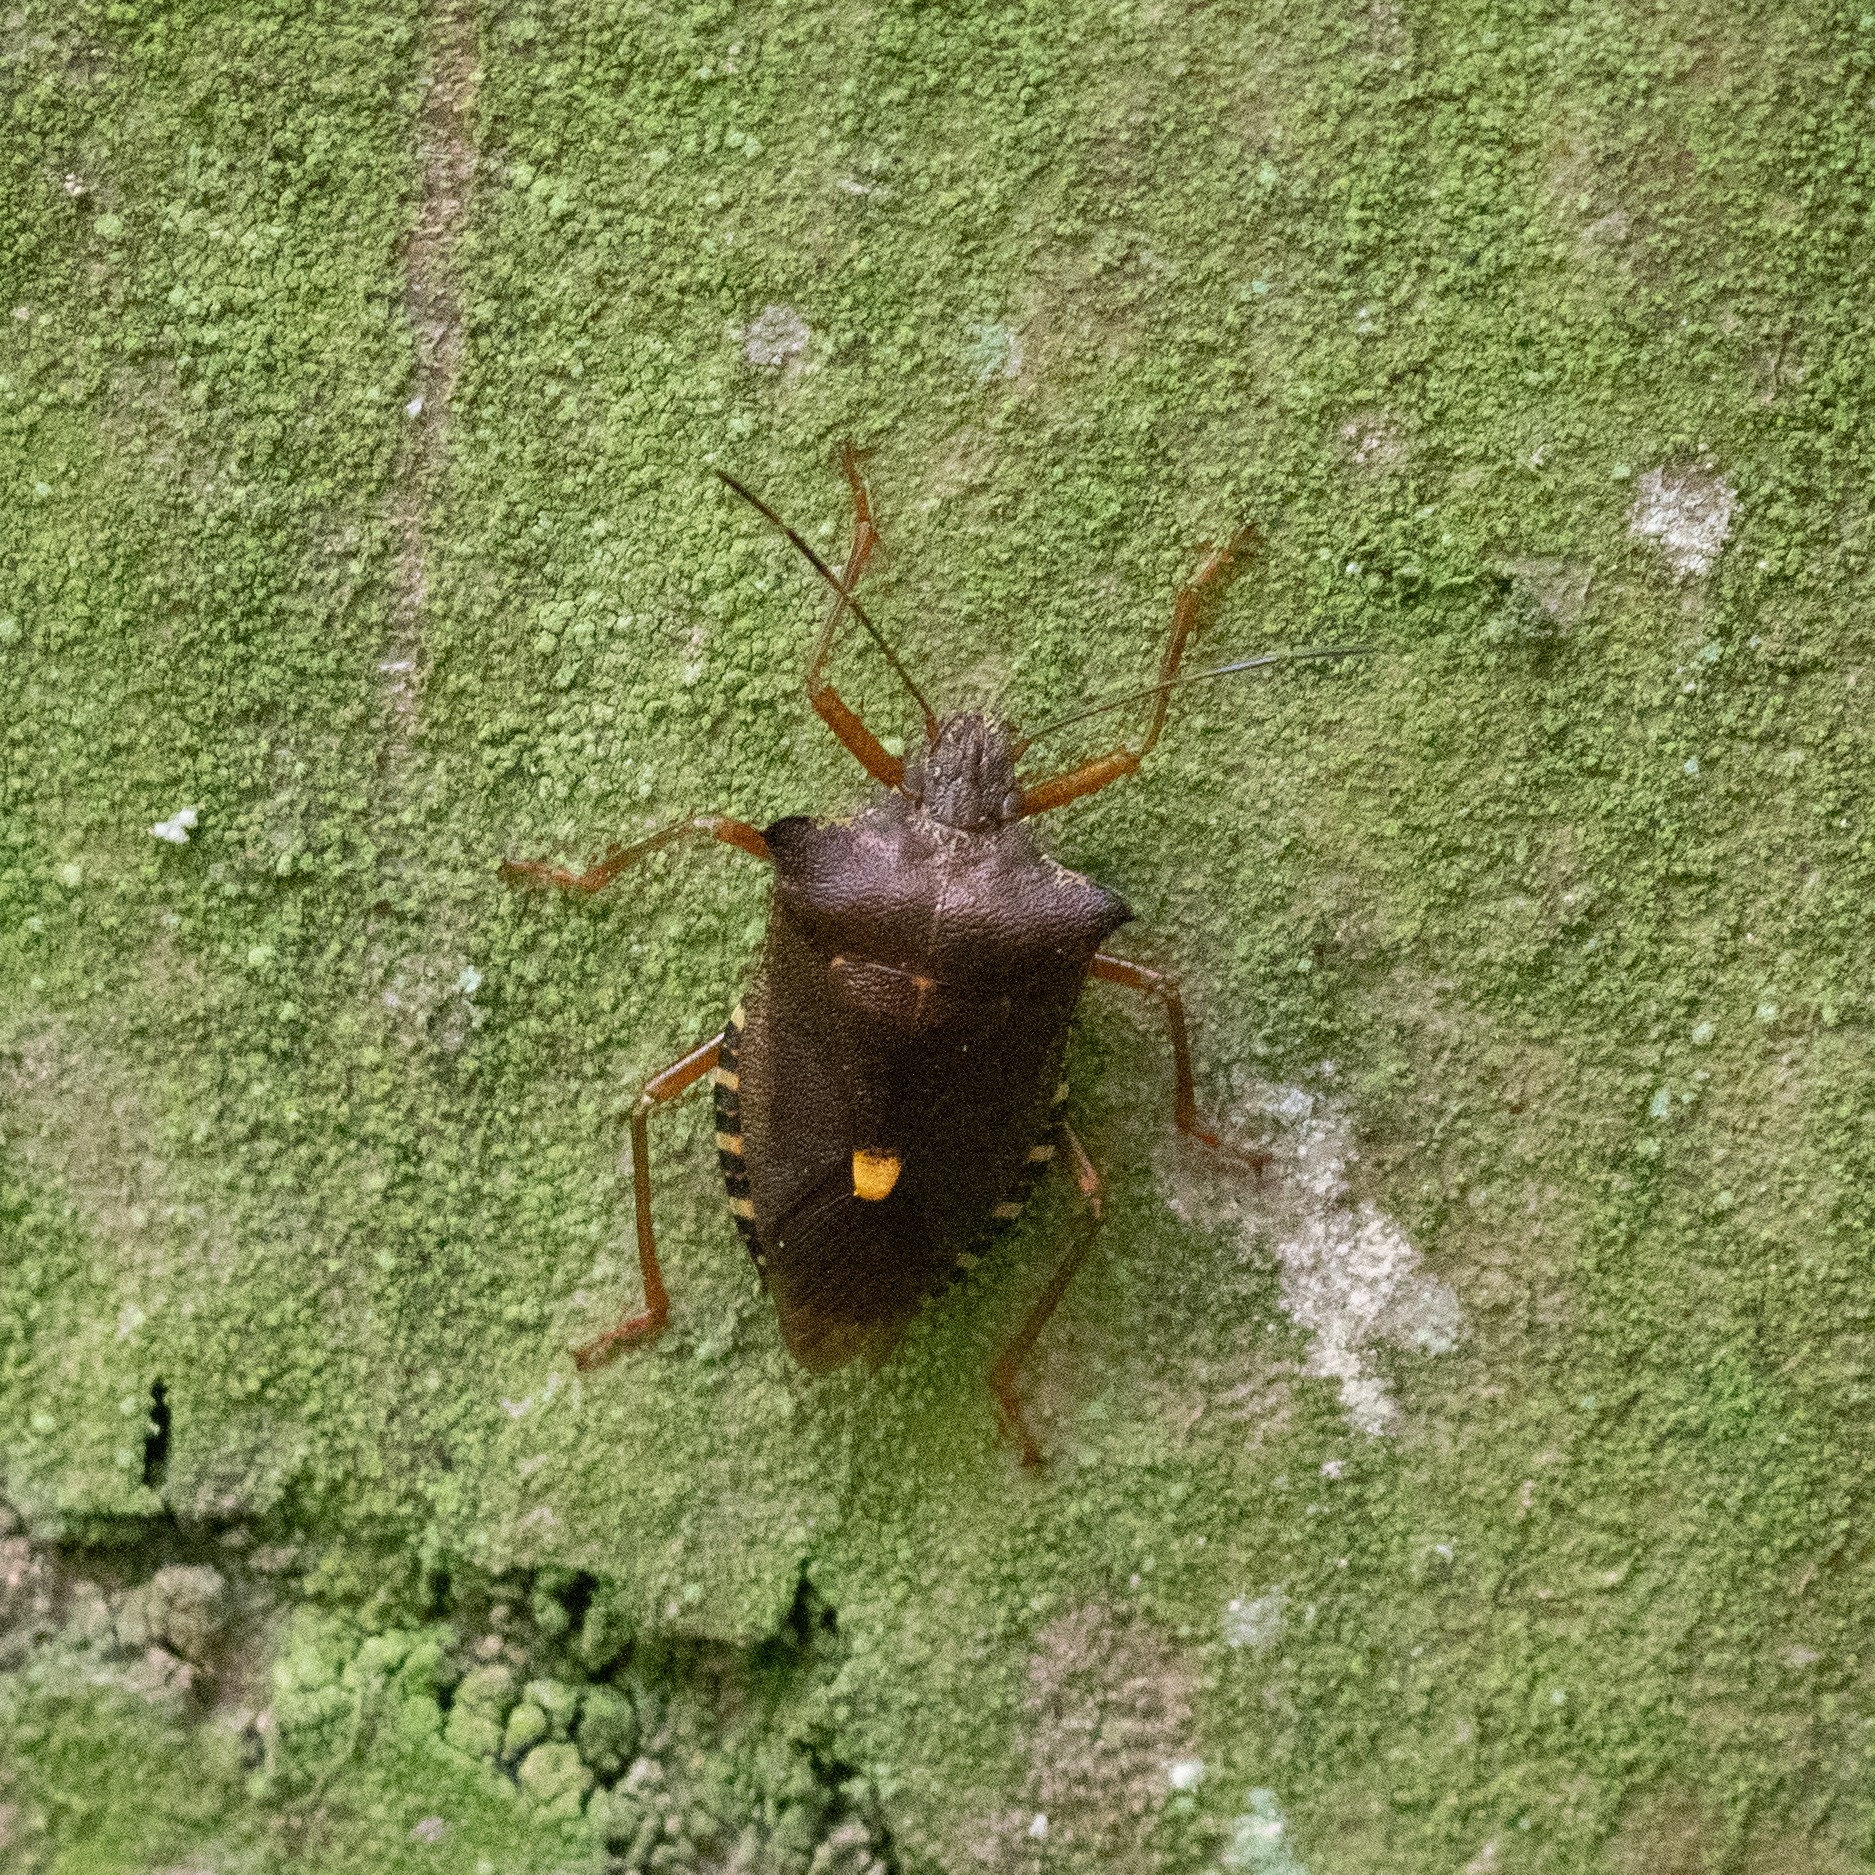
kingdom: Animalia
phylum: Arthropoda
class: Insecta
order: Hemiptera
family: Pentatomidae
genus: Pentatoma
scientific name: Pentatoma rufipes
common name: Forest bug
